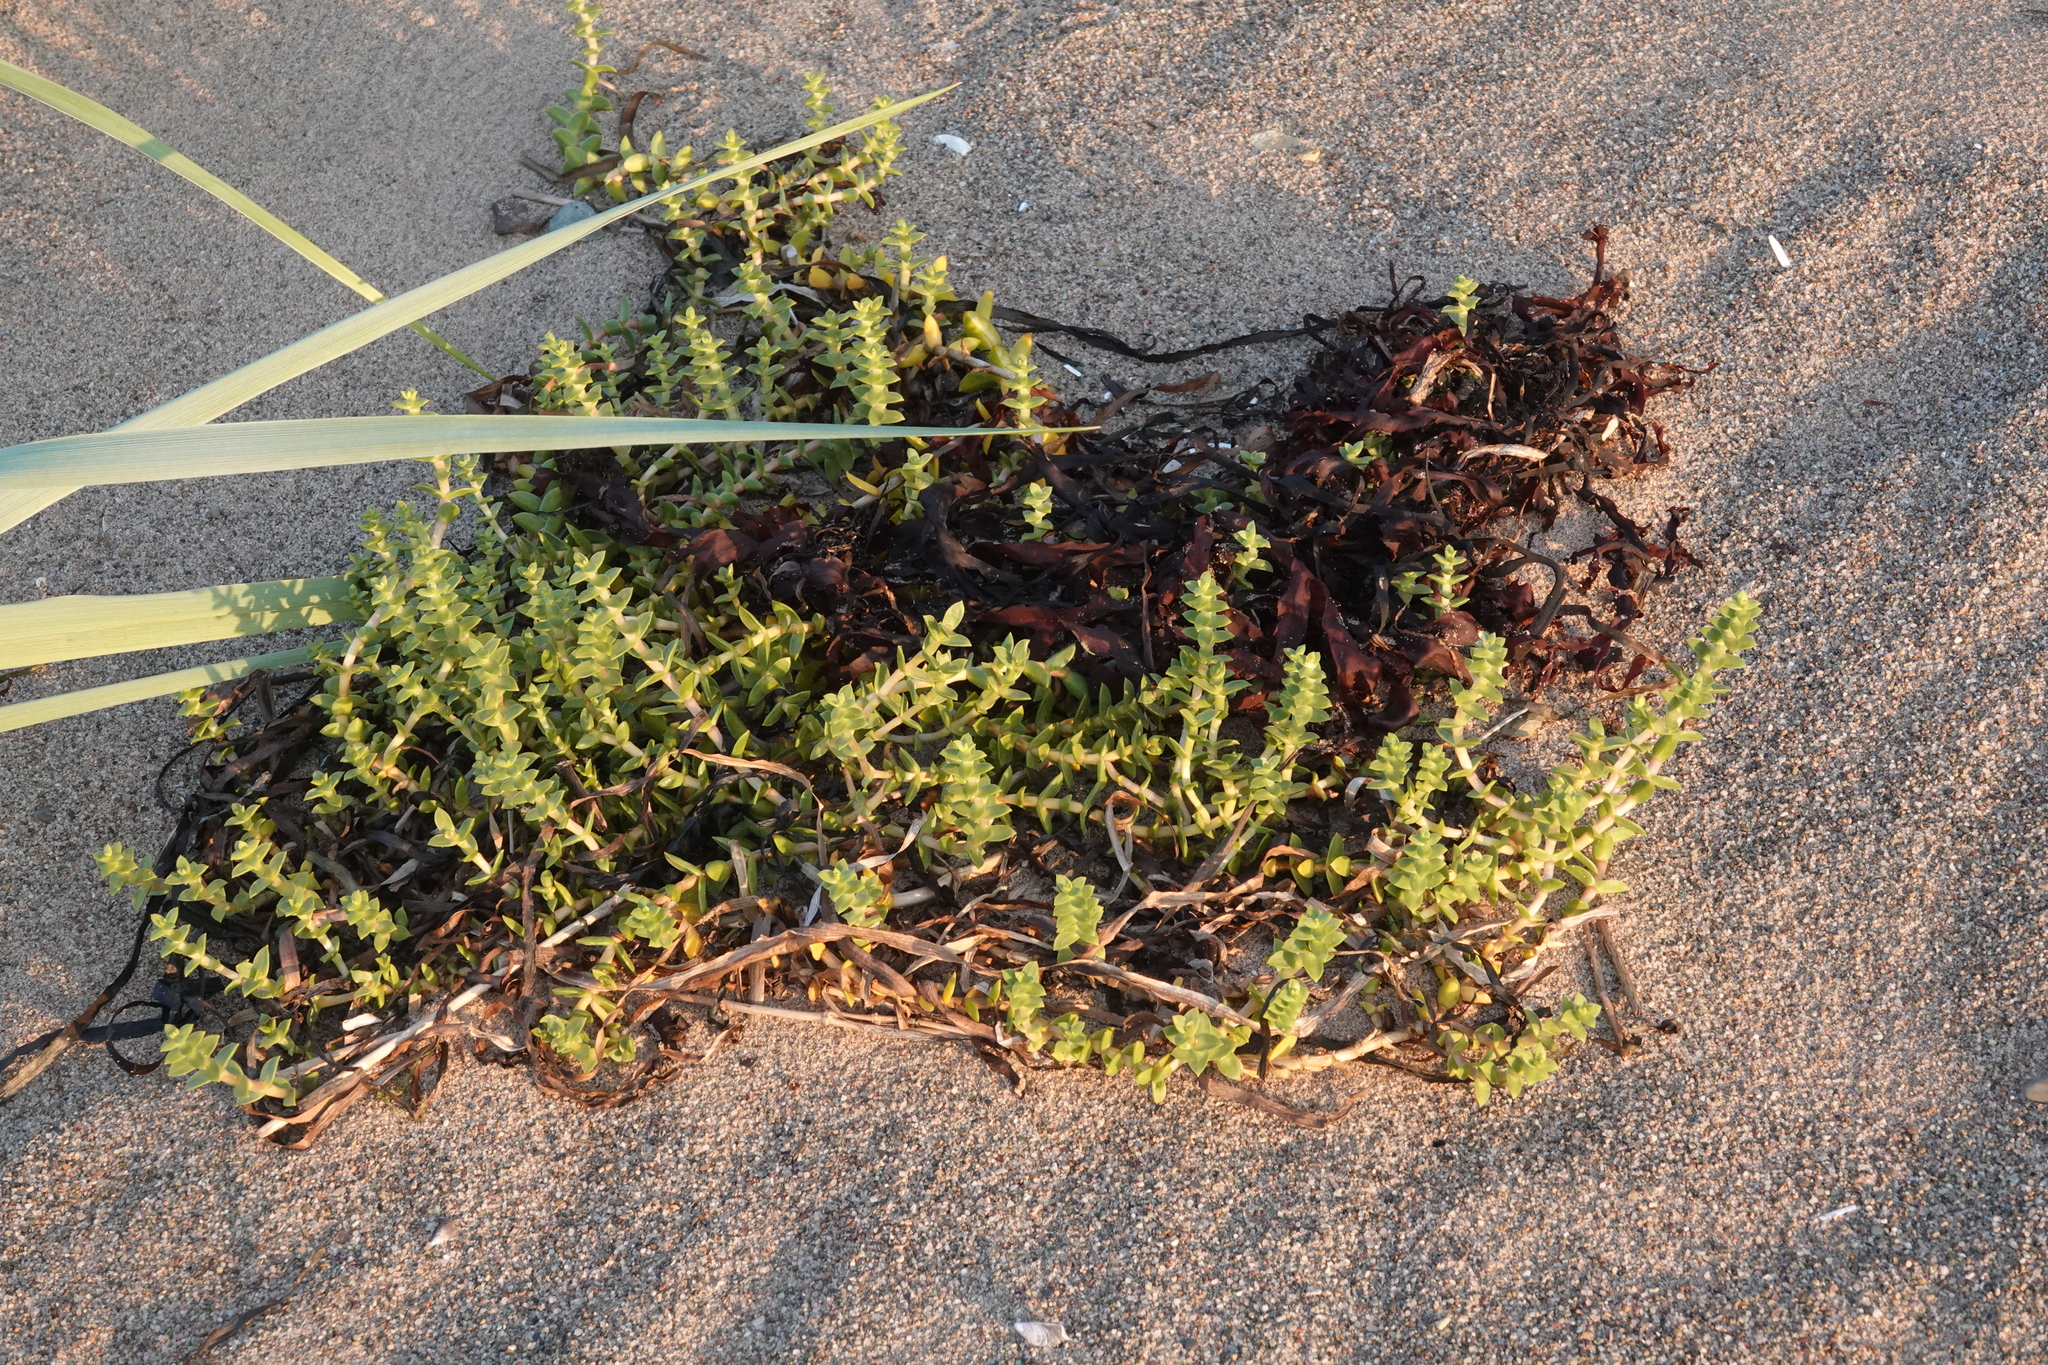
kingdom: Plantae
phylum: Tracheophyta
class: Magnoliopsida
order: Caryophyllales
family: Caryophyllaceae
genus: Honckenya
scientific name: Honckenya peploides
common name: Sea sandwort
